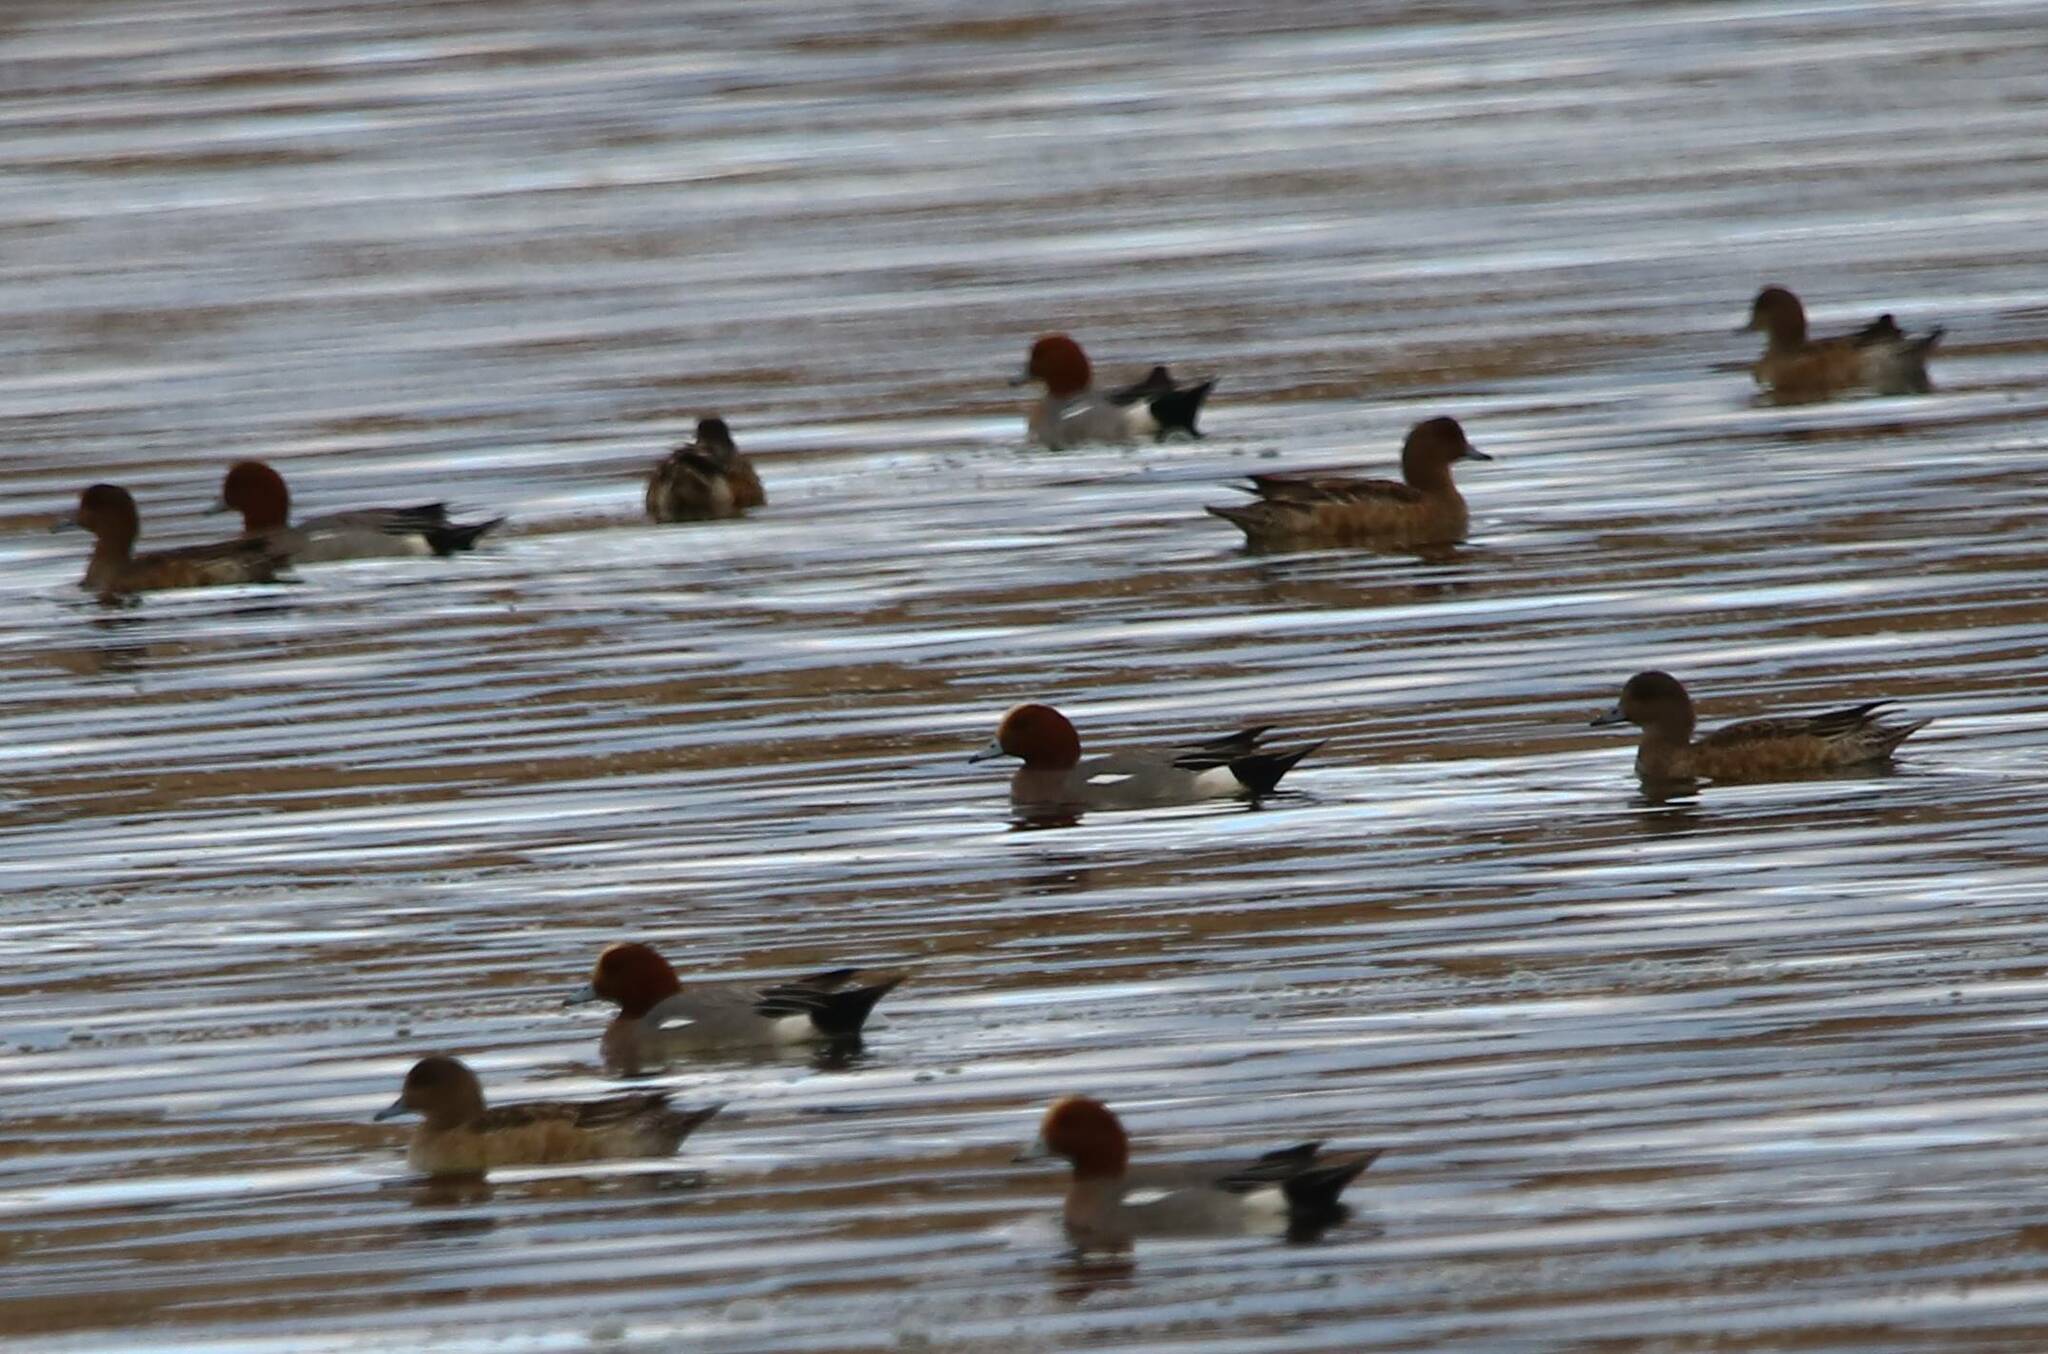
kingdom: Animalia
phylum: Chordata
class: Aves
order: Anseriformes
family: Anatidae
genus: Mareca
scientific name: Mareca penelope
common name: Eurasian wigeon
